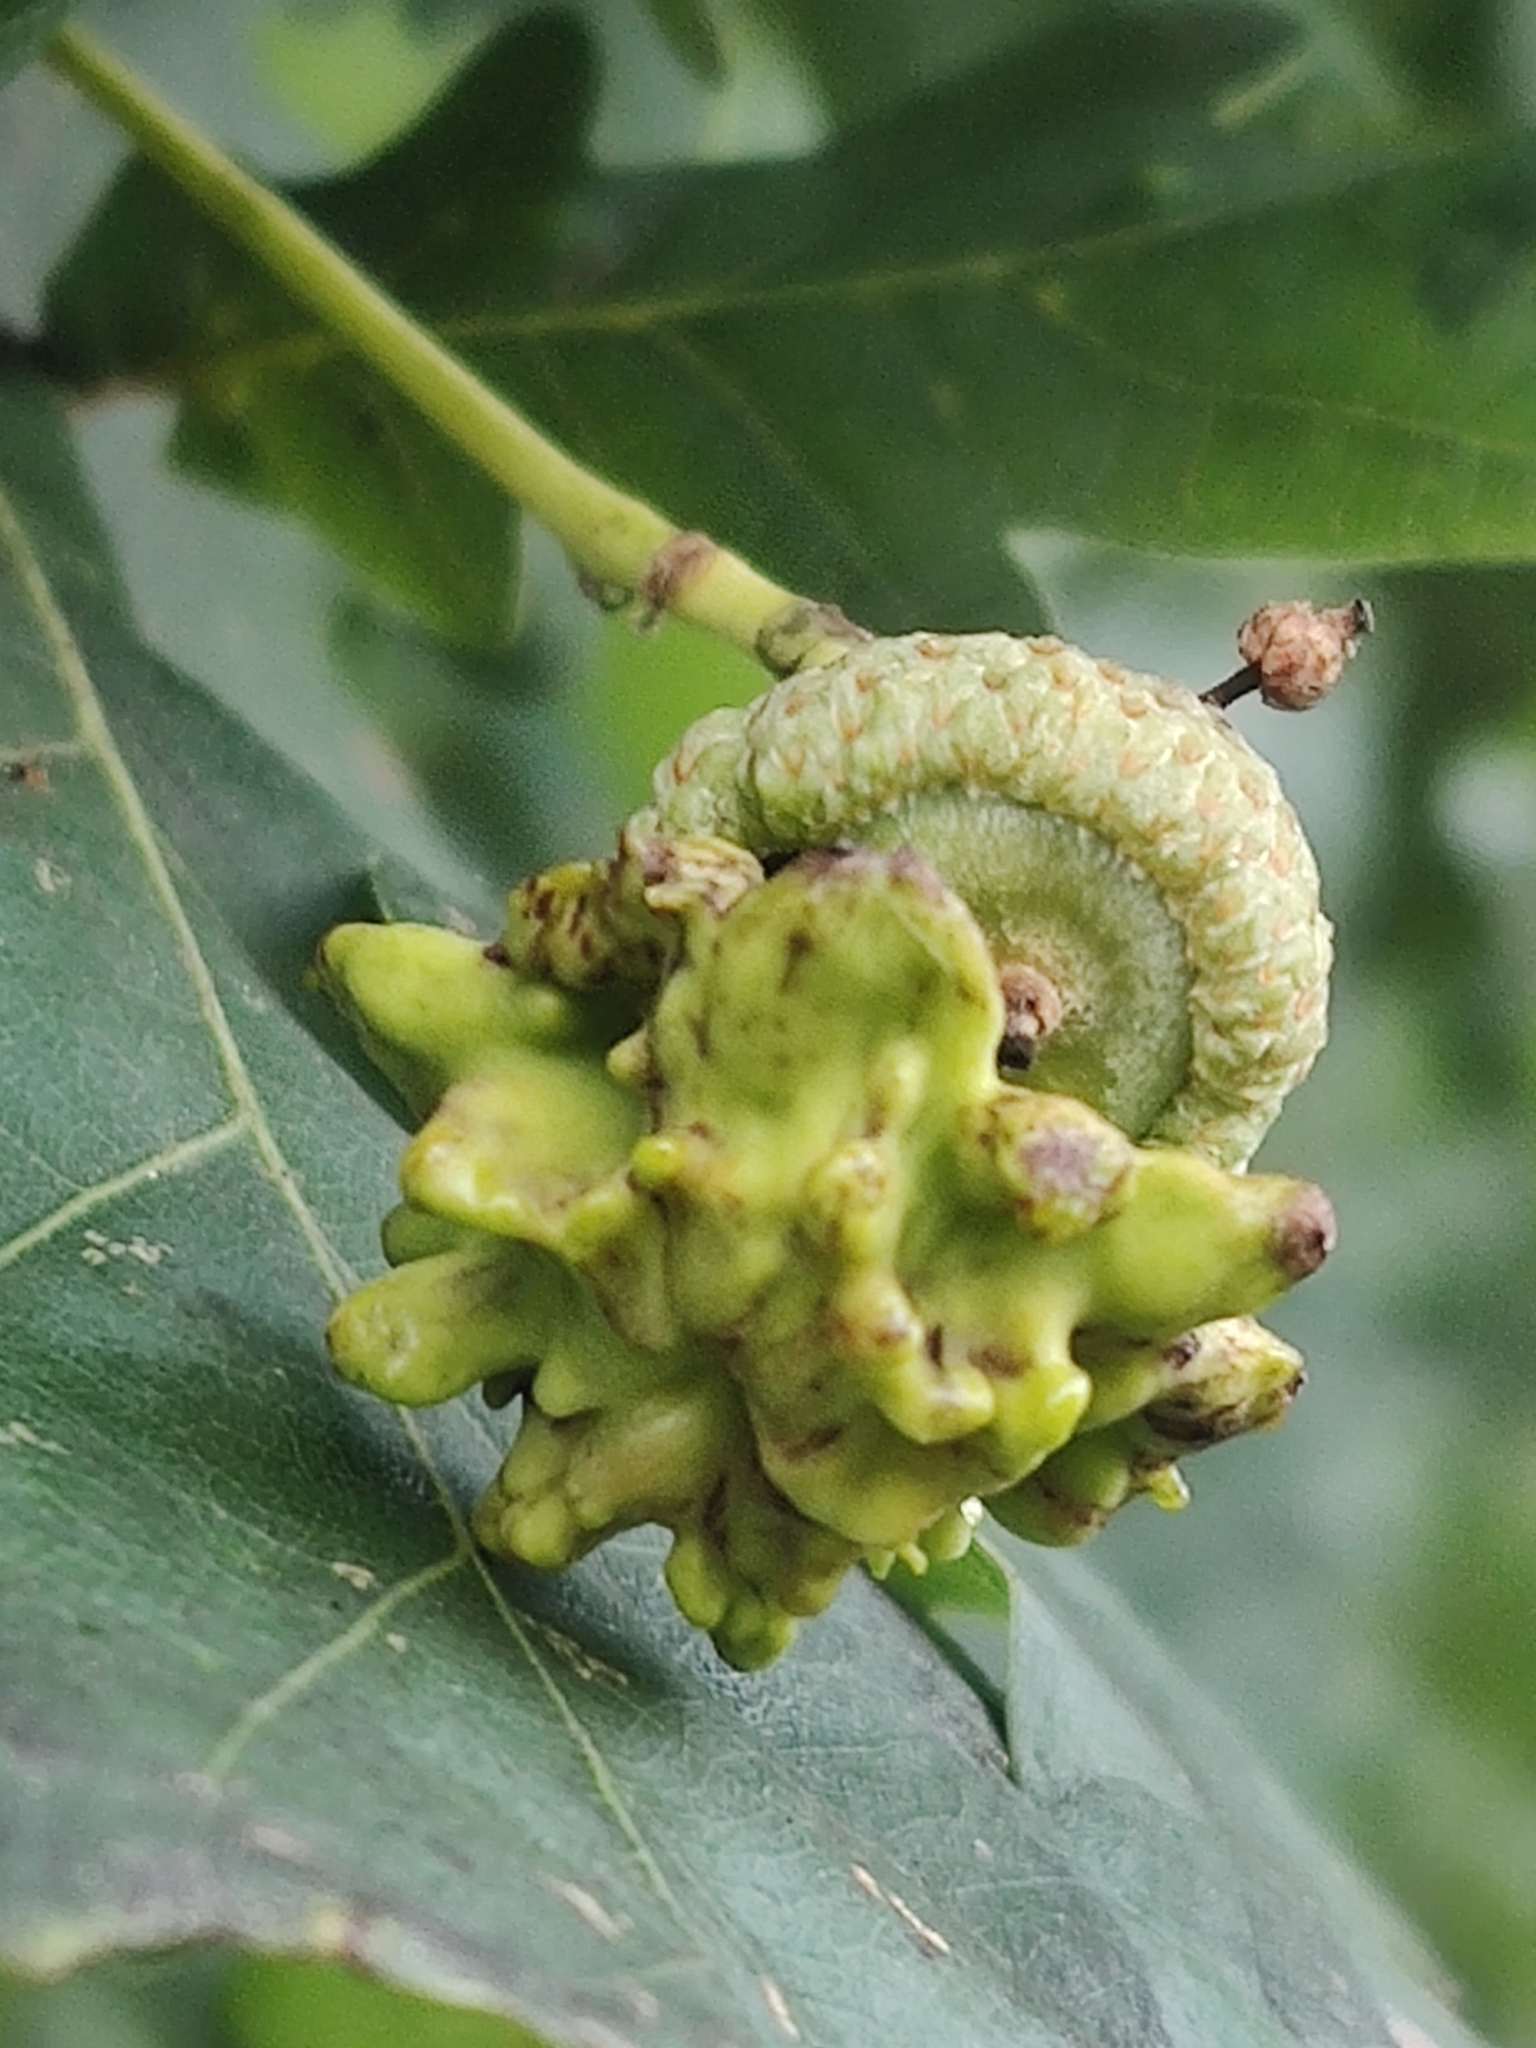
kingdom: Animalia
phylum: Arthropoda
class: Insecta
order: Hymenoptera
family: Cynipidae
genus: Andricus
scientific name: Andricus quercuscalicis
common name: Knopper gall
